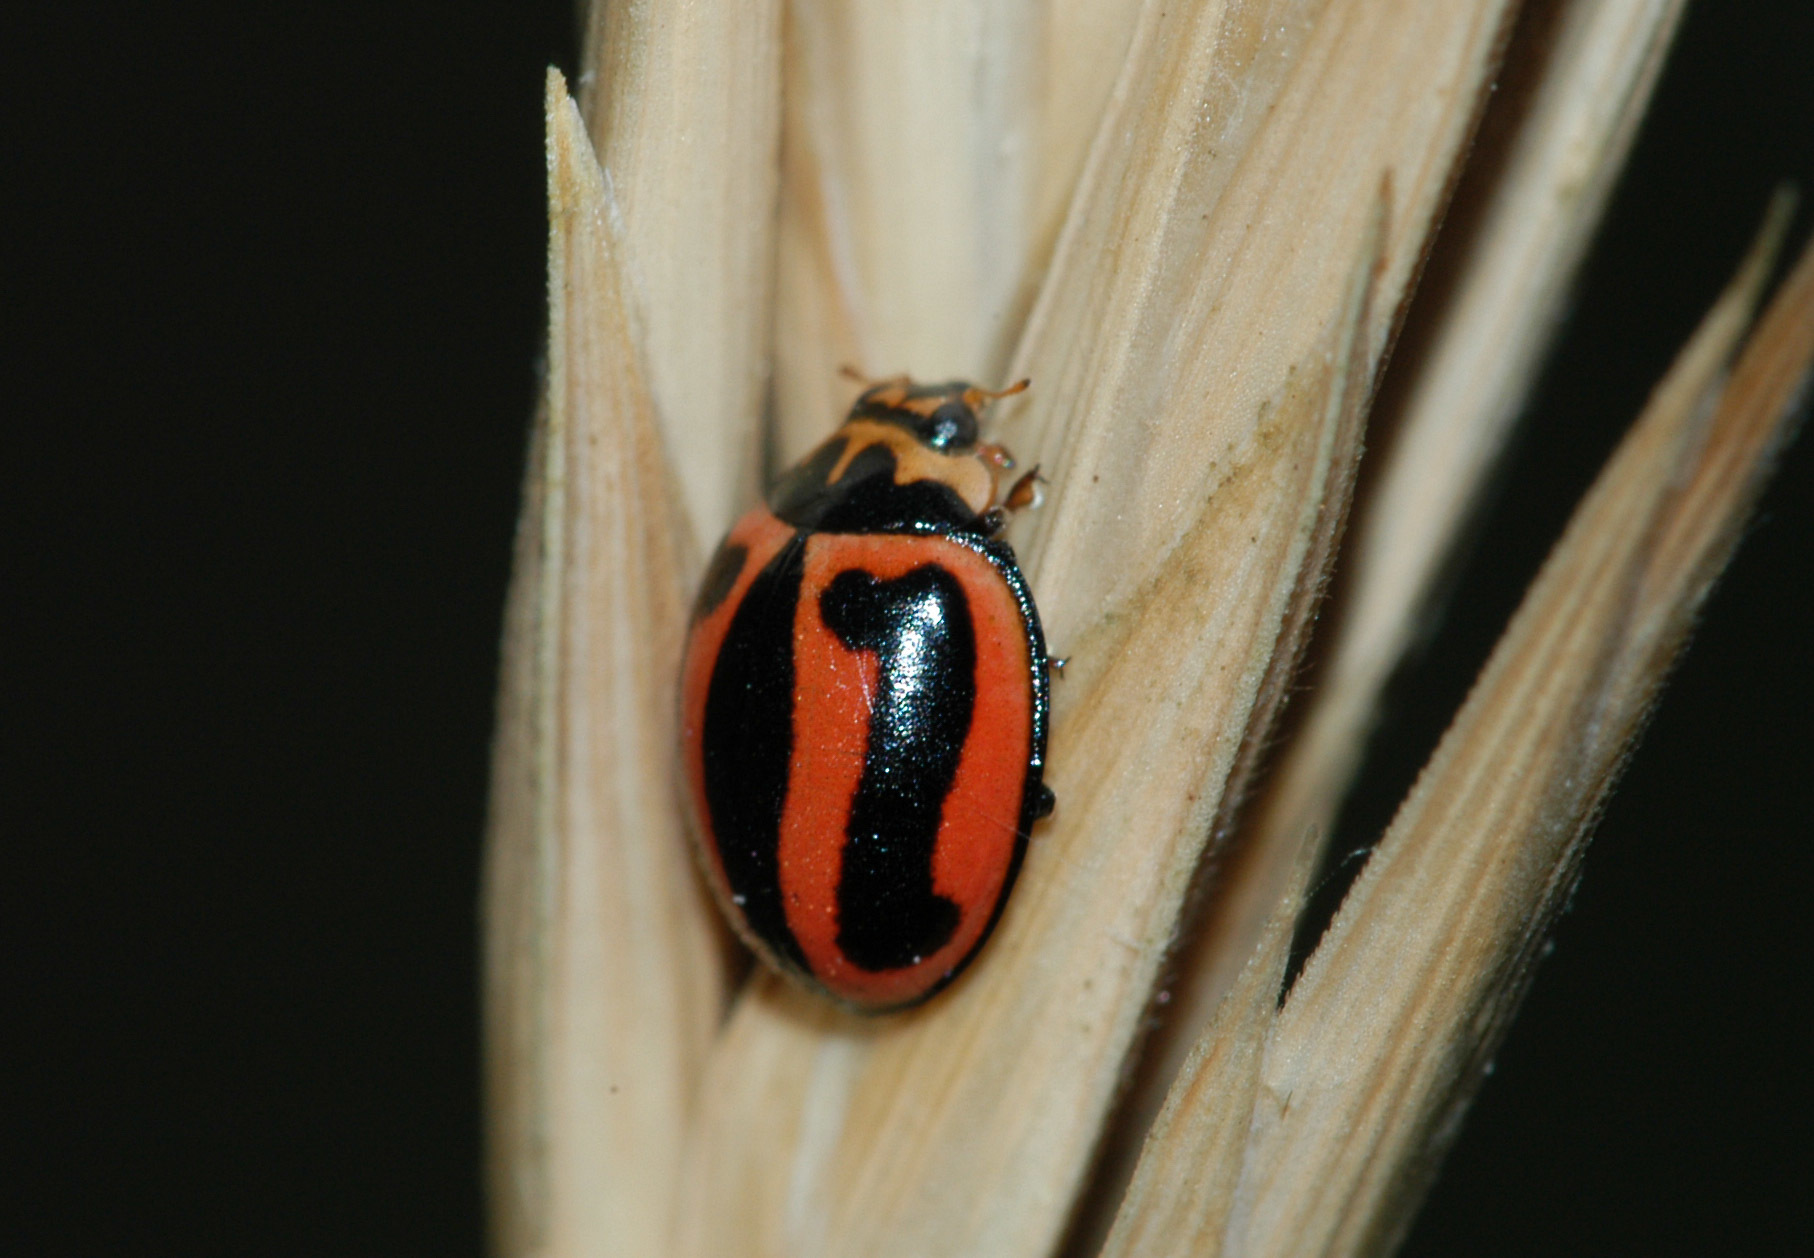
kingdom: Animalia
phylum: Arthropoda
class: Insecta
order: Coleoptera
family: Coccinellidae
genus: Micraspis
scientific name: Micraspis frenata
